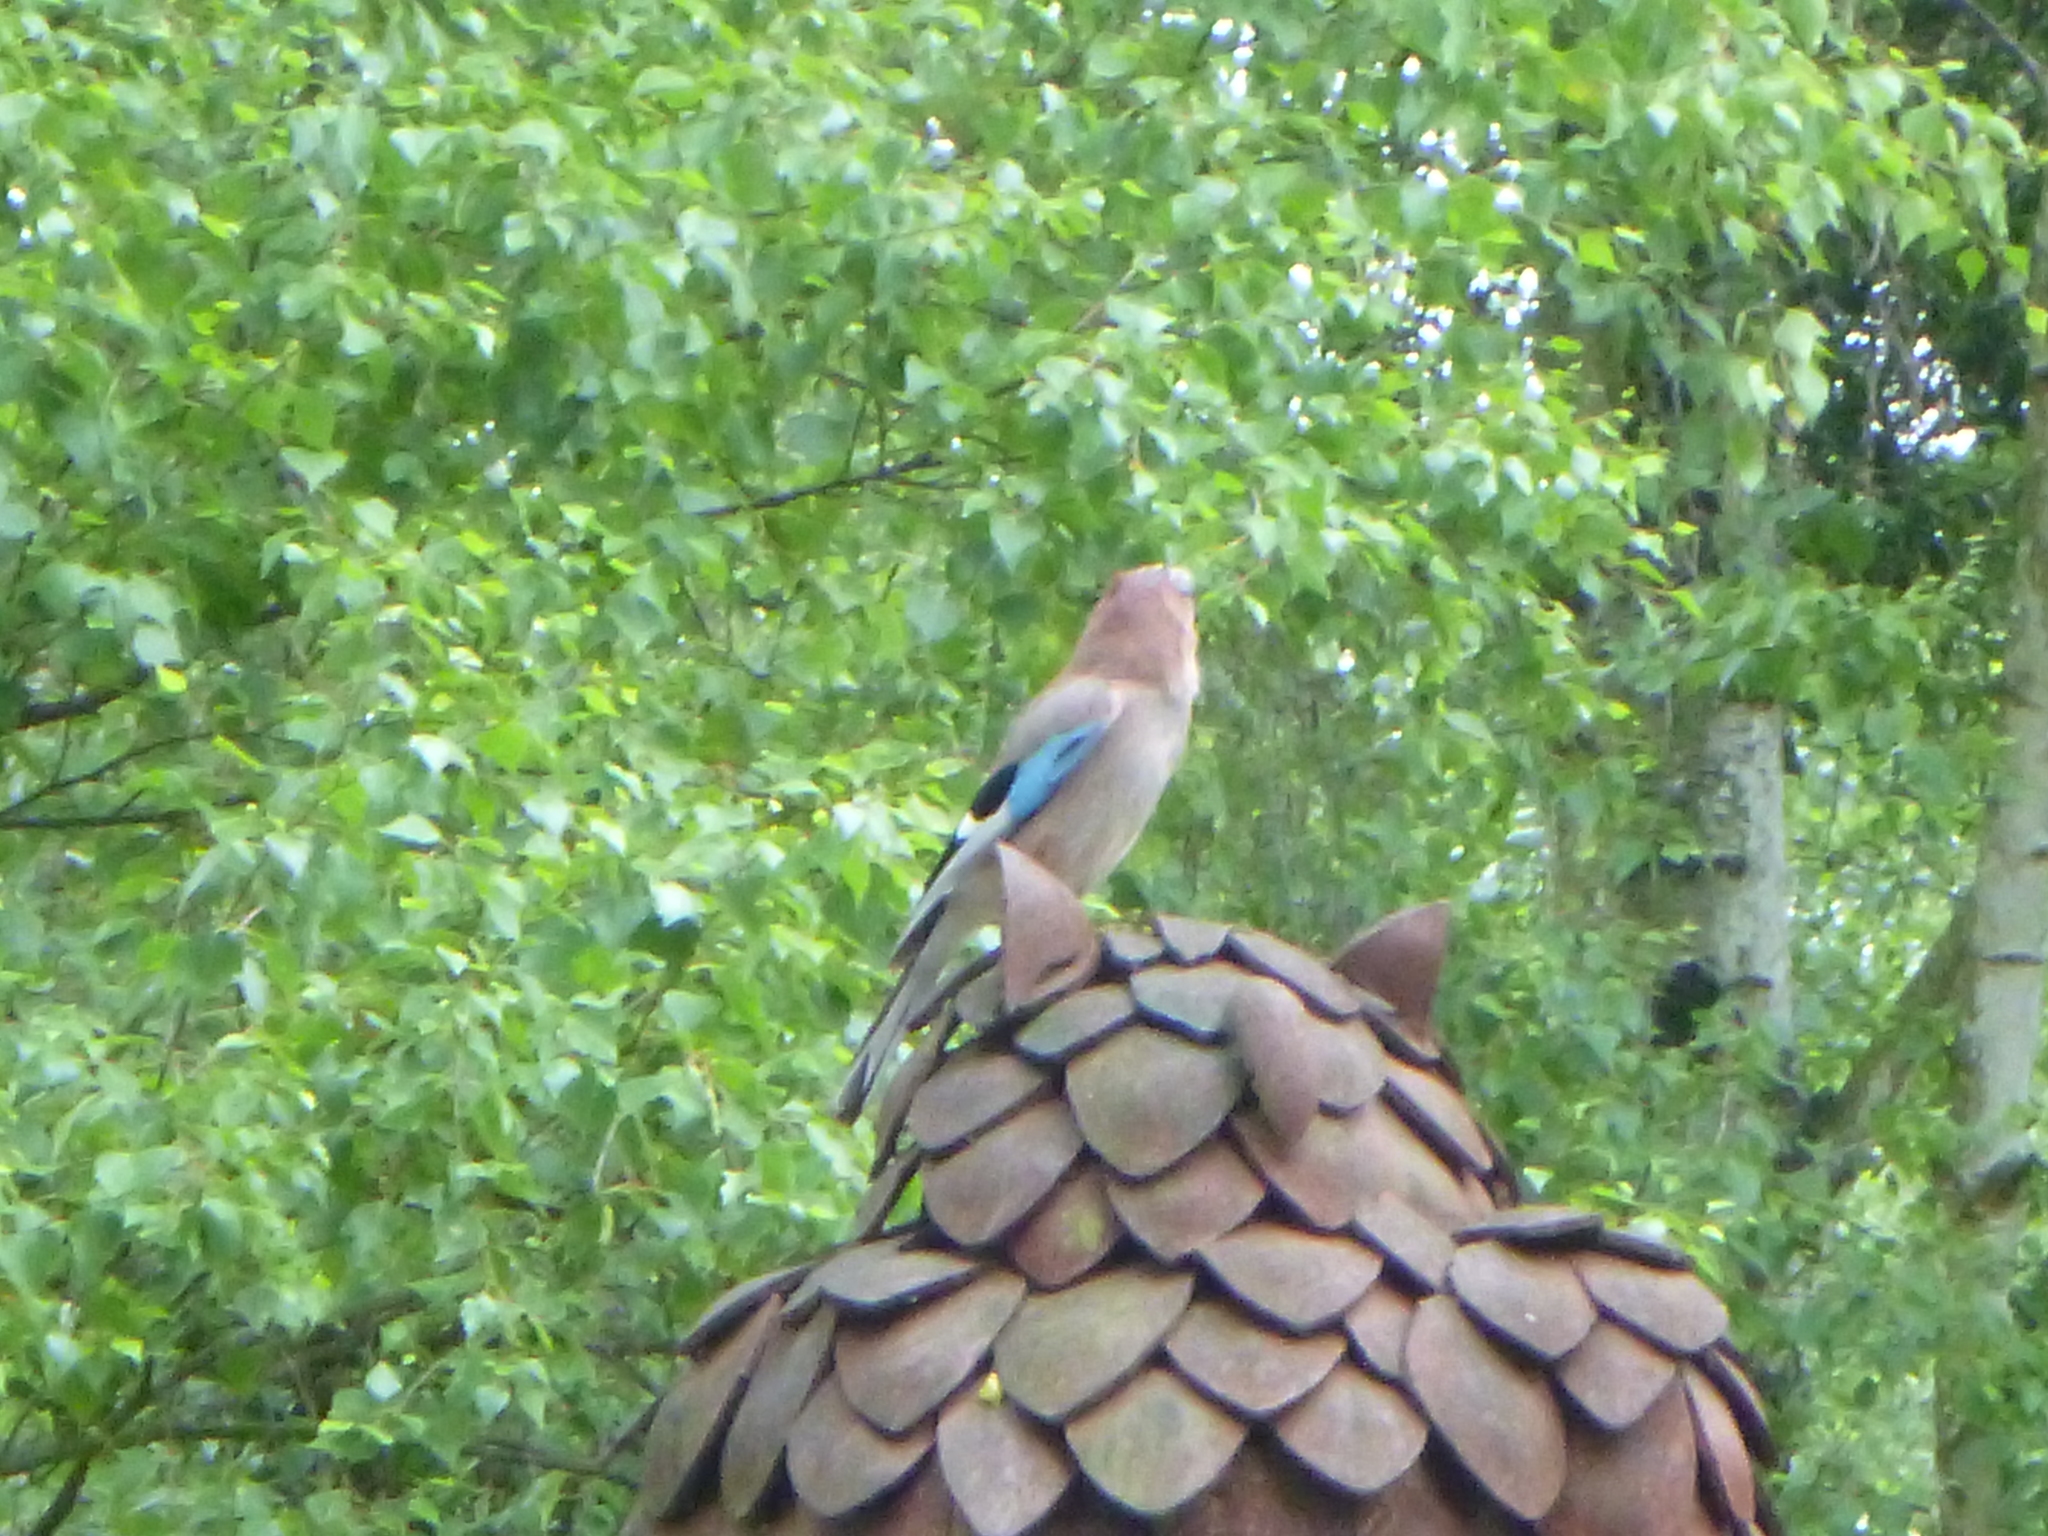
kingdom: Animalia
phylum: Chordata
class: Aves
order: Passeriformes
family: Corvidae
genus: Garrulus
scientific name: Garrulus glandarius
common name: Eurasian jay
